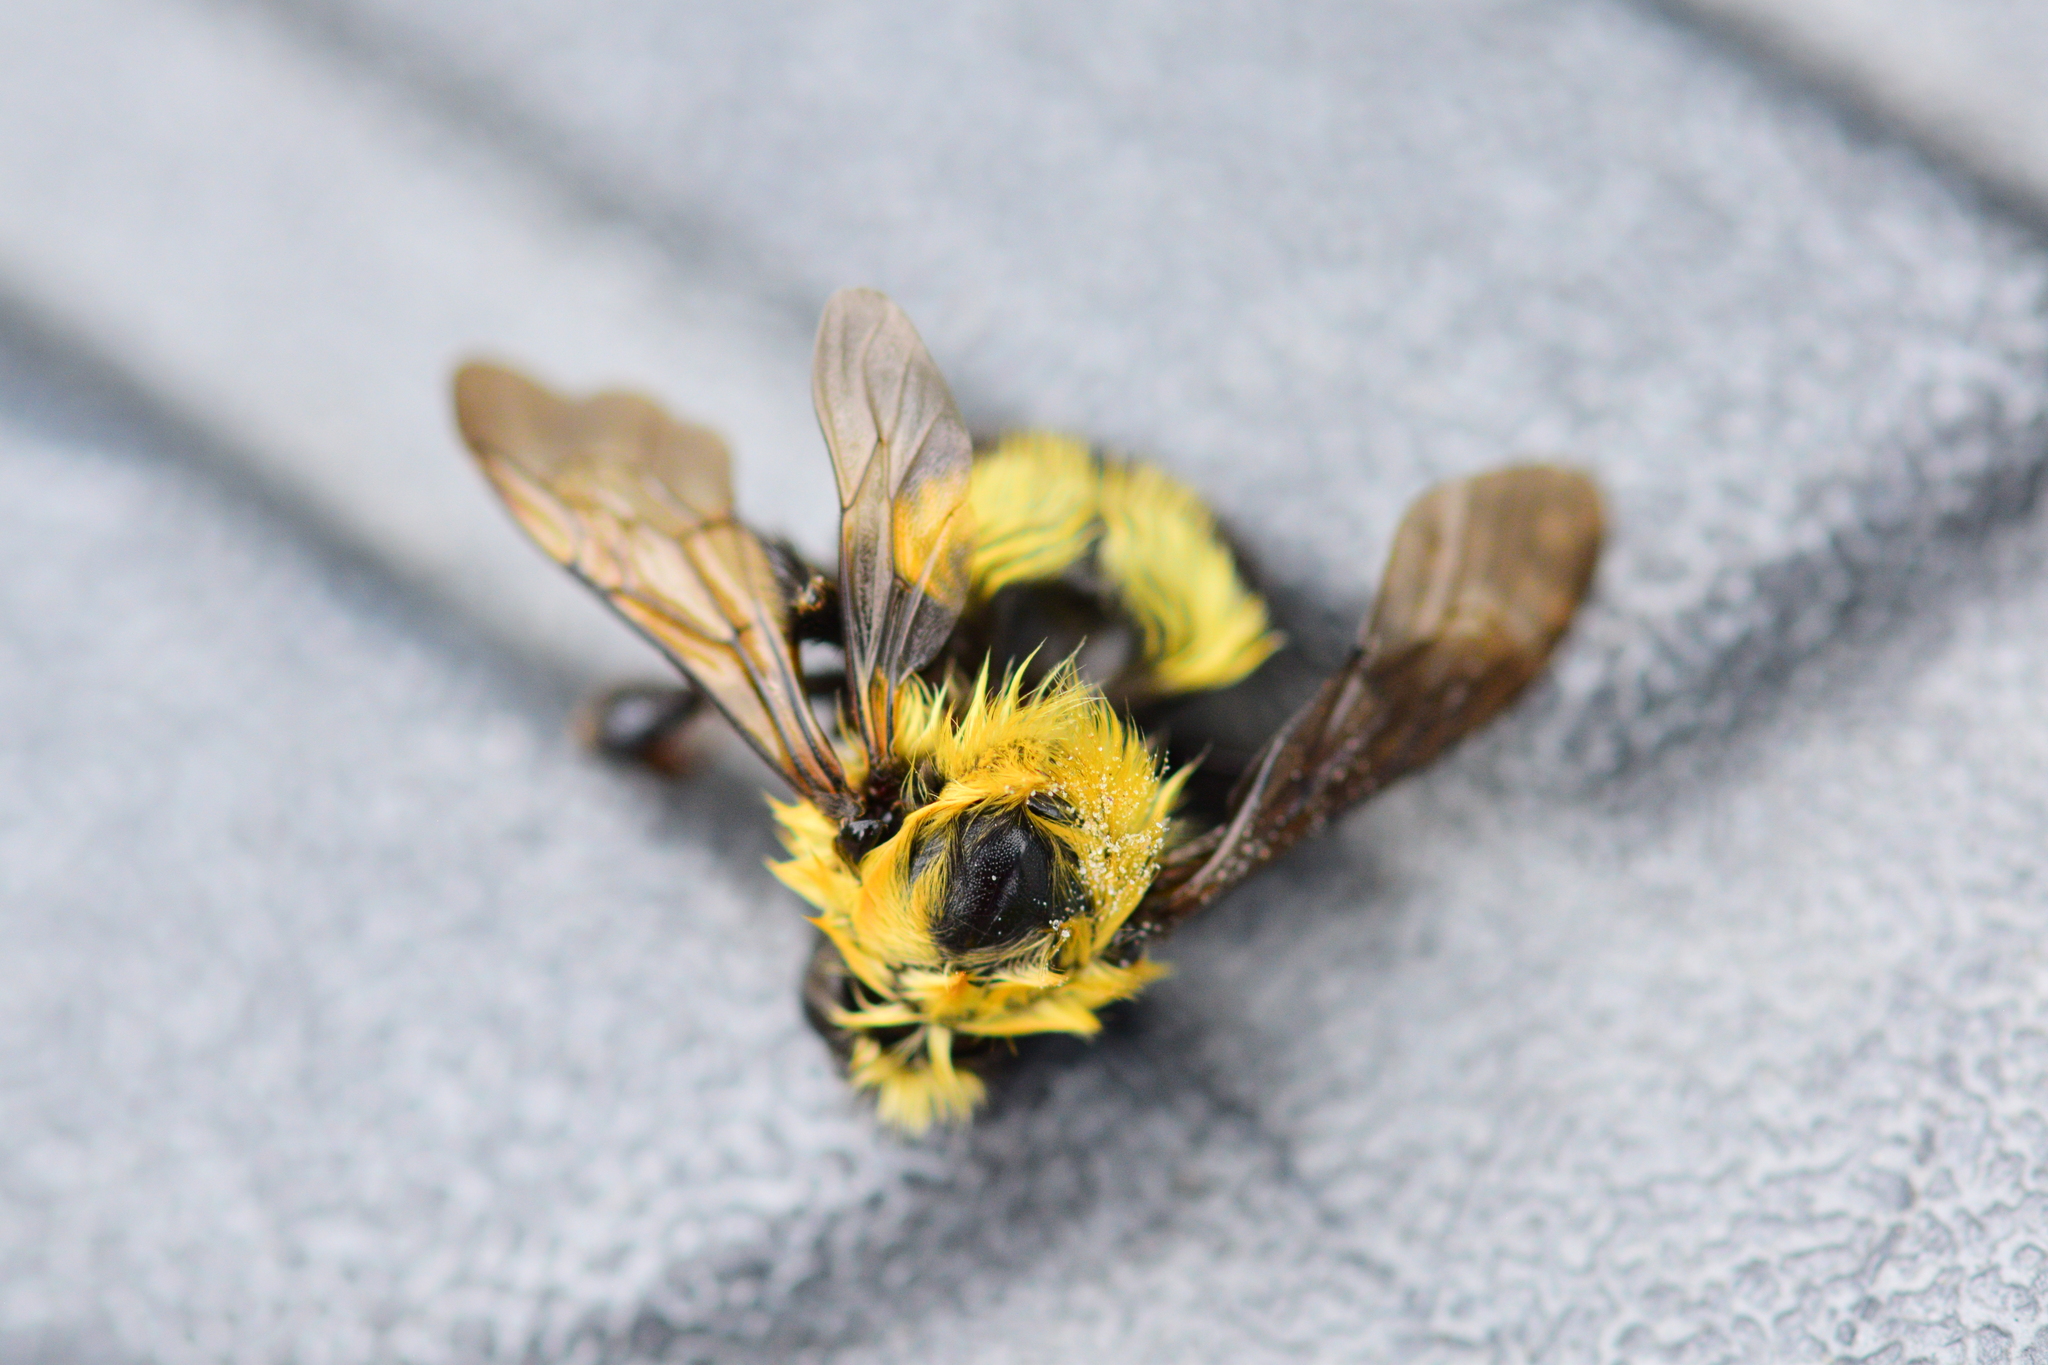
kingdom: Animalia
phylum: Arthropoda
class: Insecta
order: Hymenoptera
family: Apidae
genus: Bombus
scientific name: Bombus bimaculatus
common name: Two-spotted bumble bee
